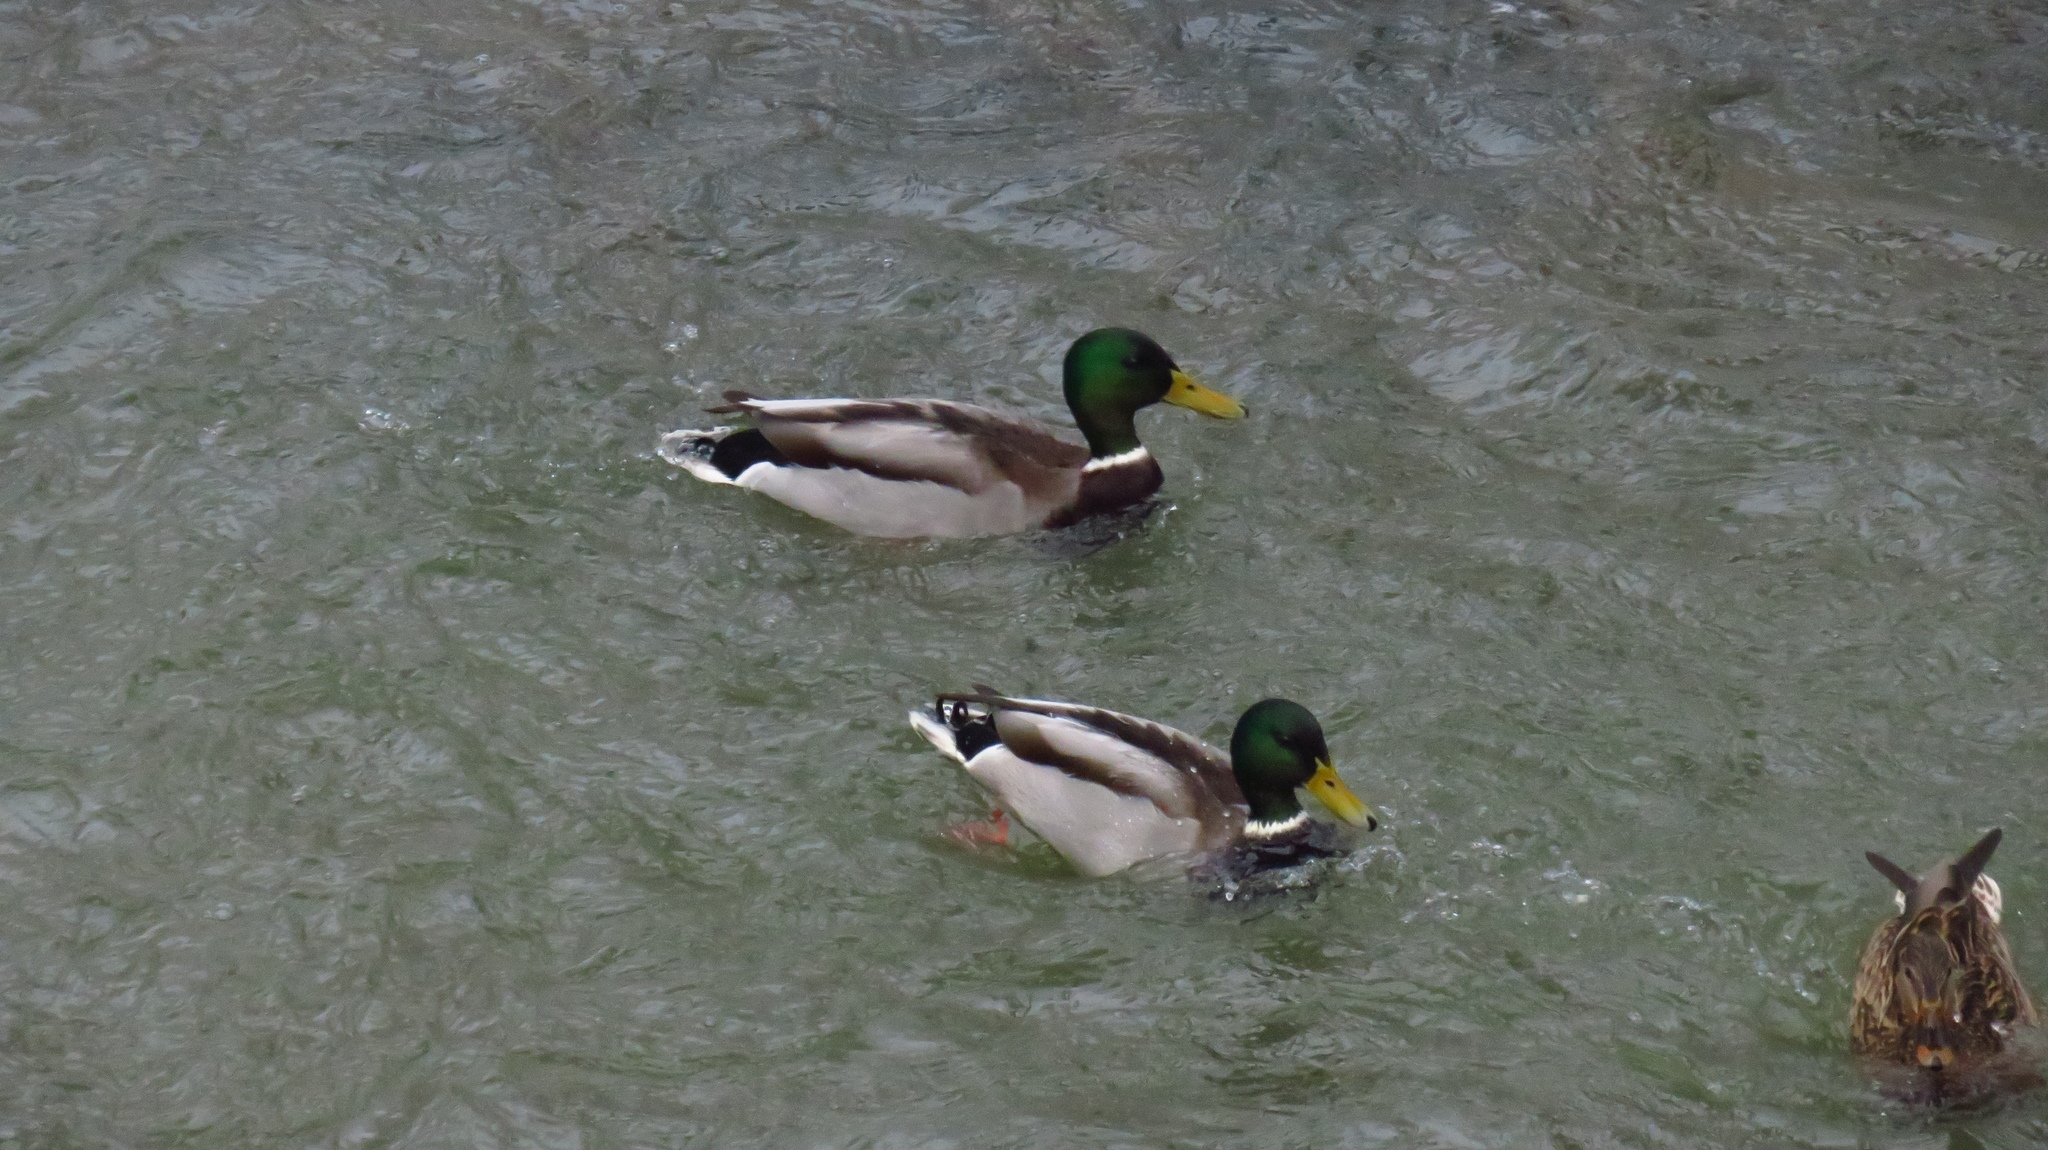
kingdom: Animalia
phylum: Chordata
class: Aves
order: Anseriformes
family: Anatidae
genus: Anas
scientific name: Anas platyrhynchos
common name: Mallard
